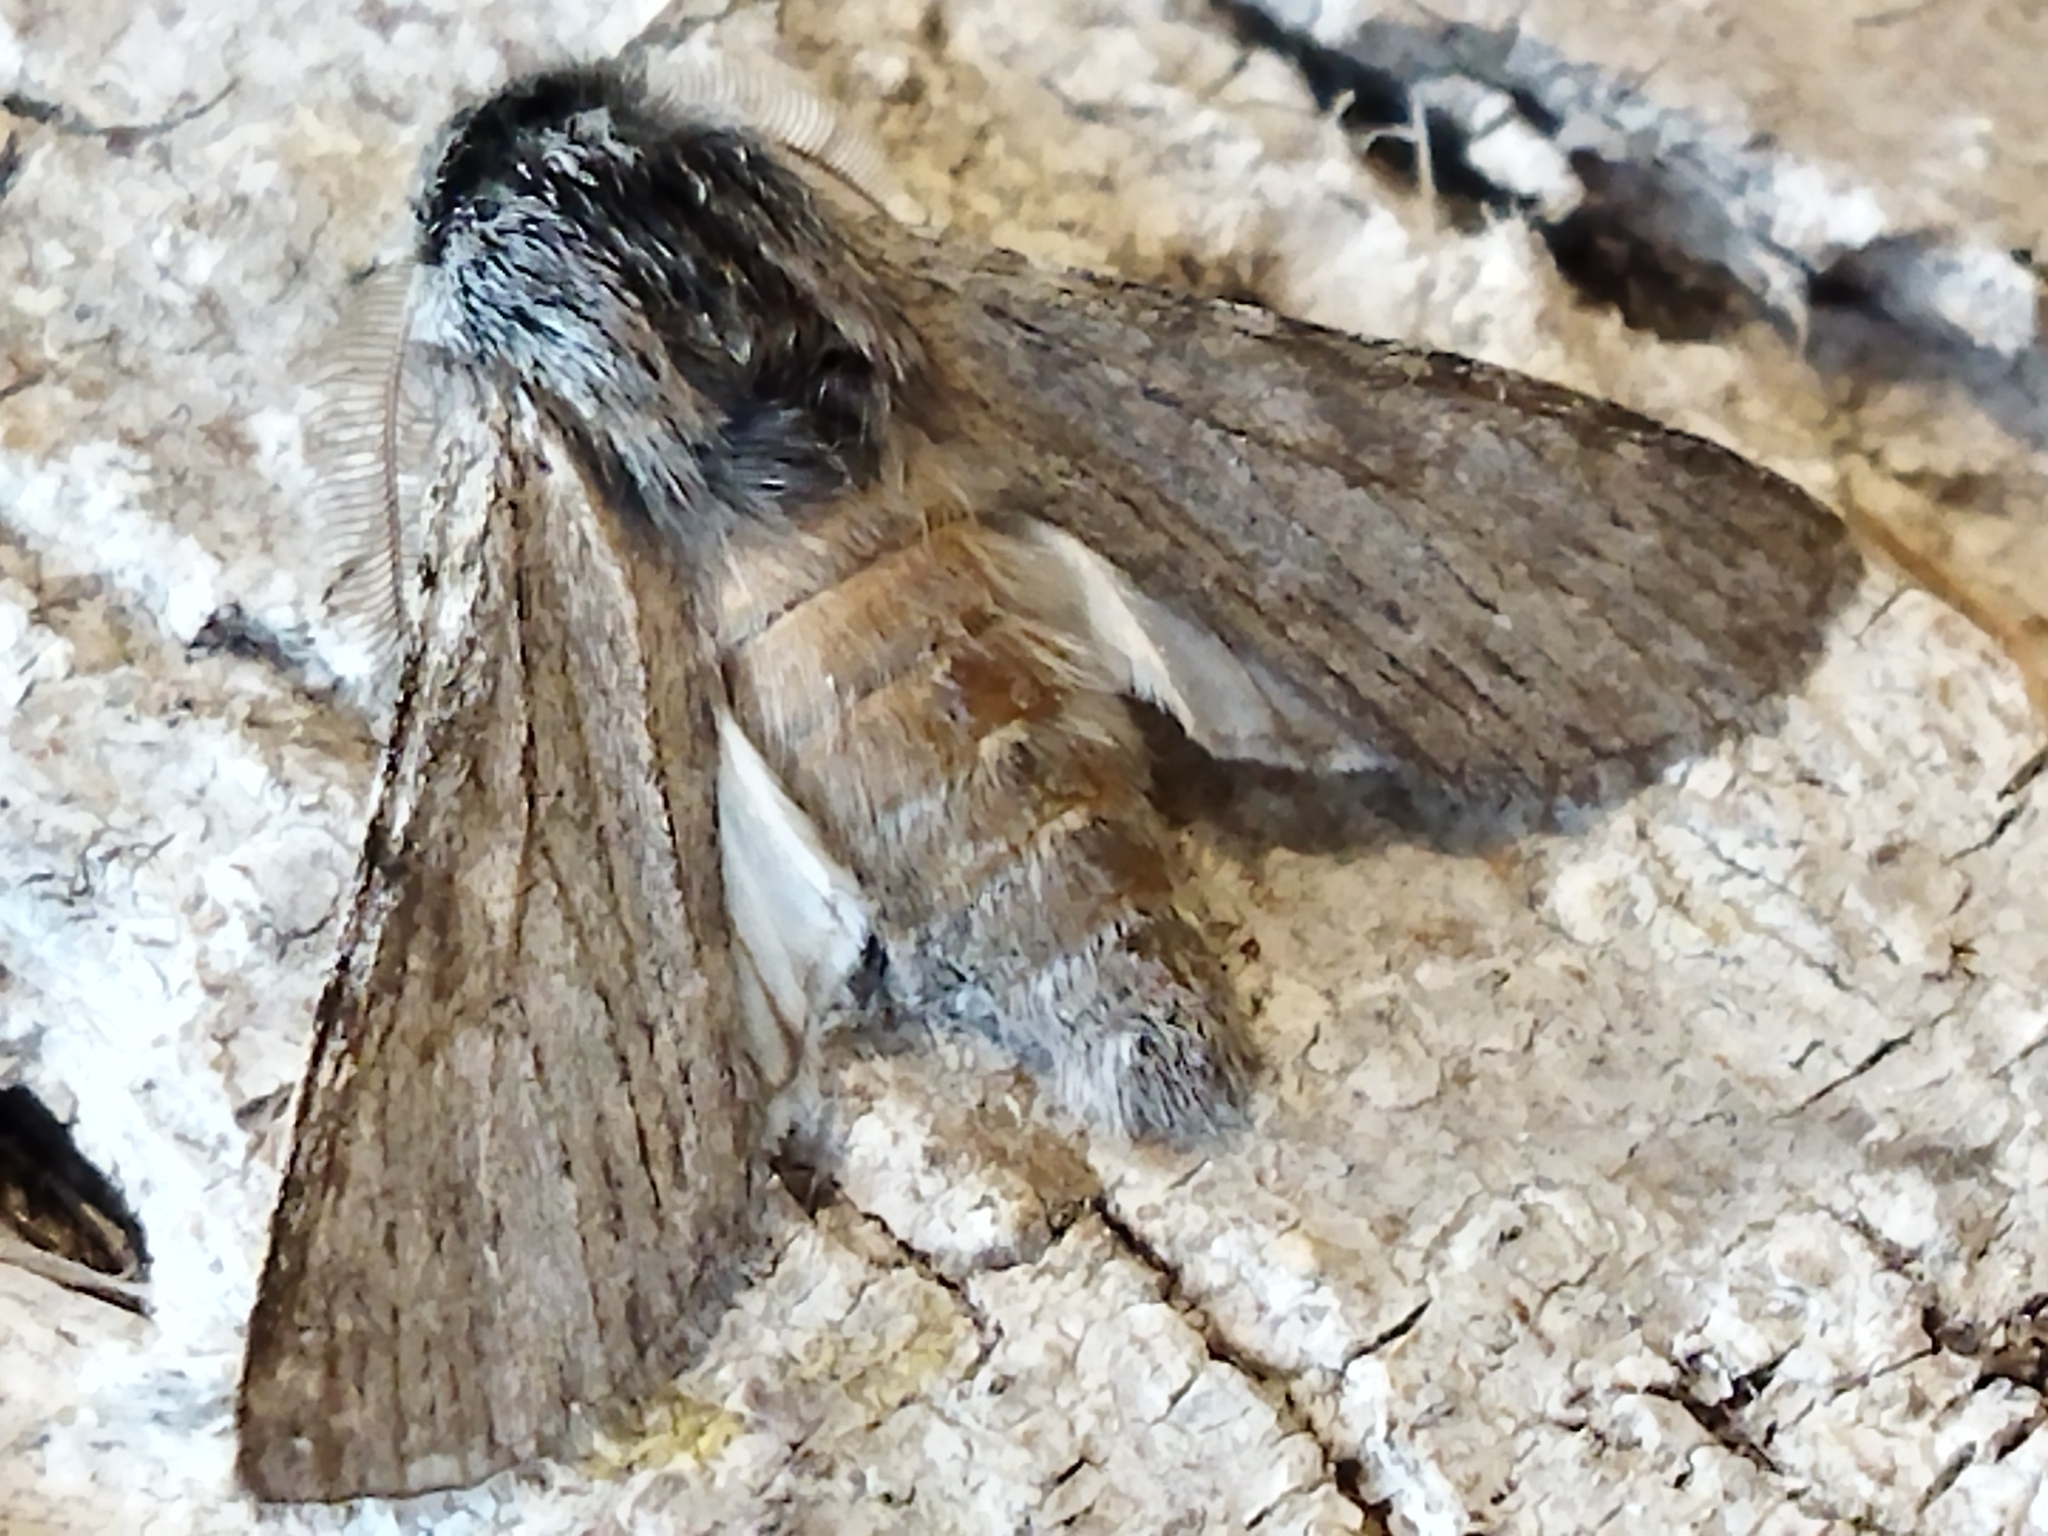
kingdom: Animalia
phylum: Arthropoda
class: Insecta
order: Lepidoptera
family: Notodontidae
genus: Dicranura
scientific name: Dicranura ulmi
